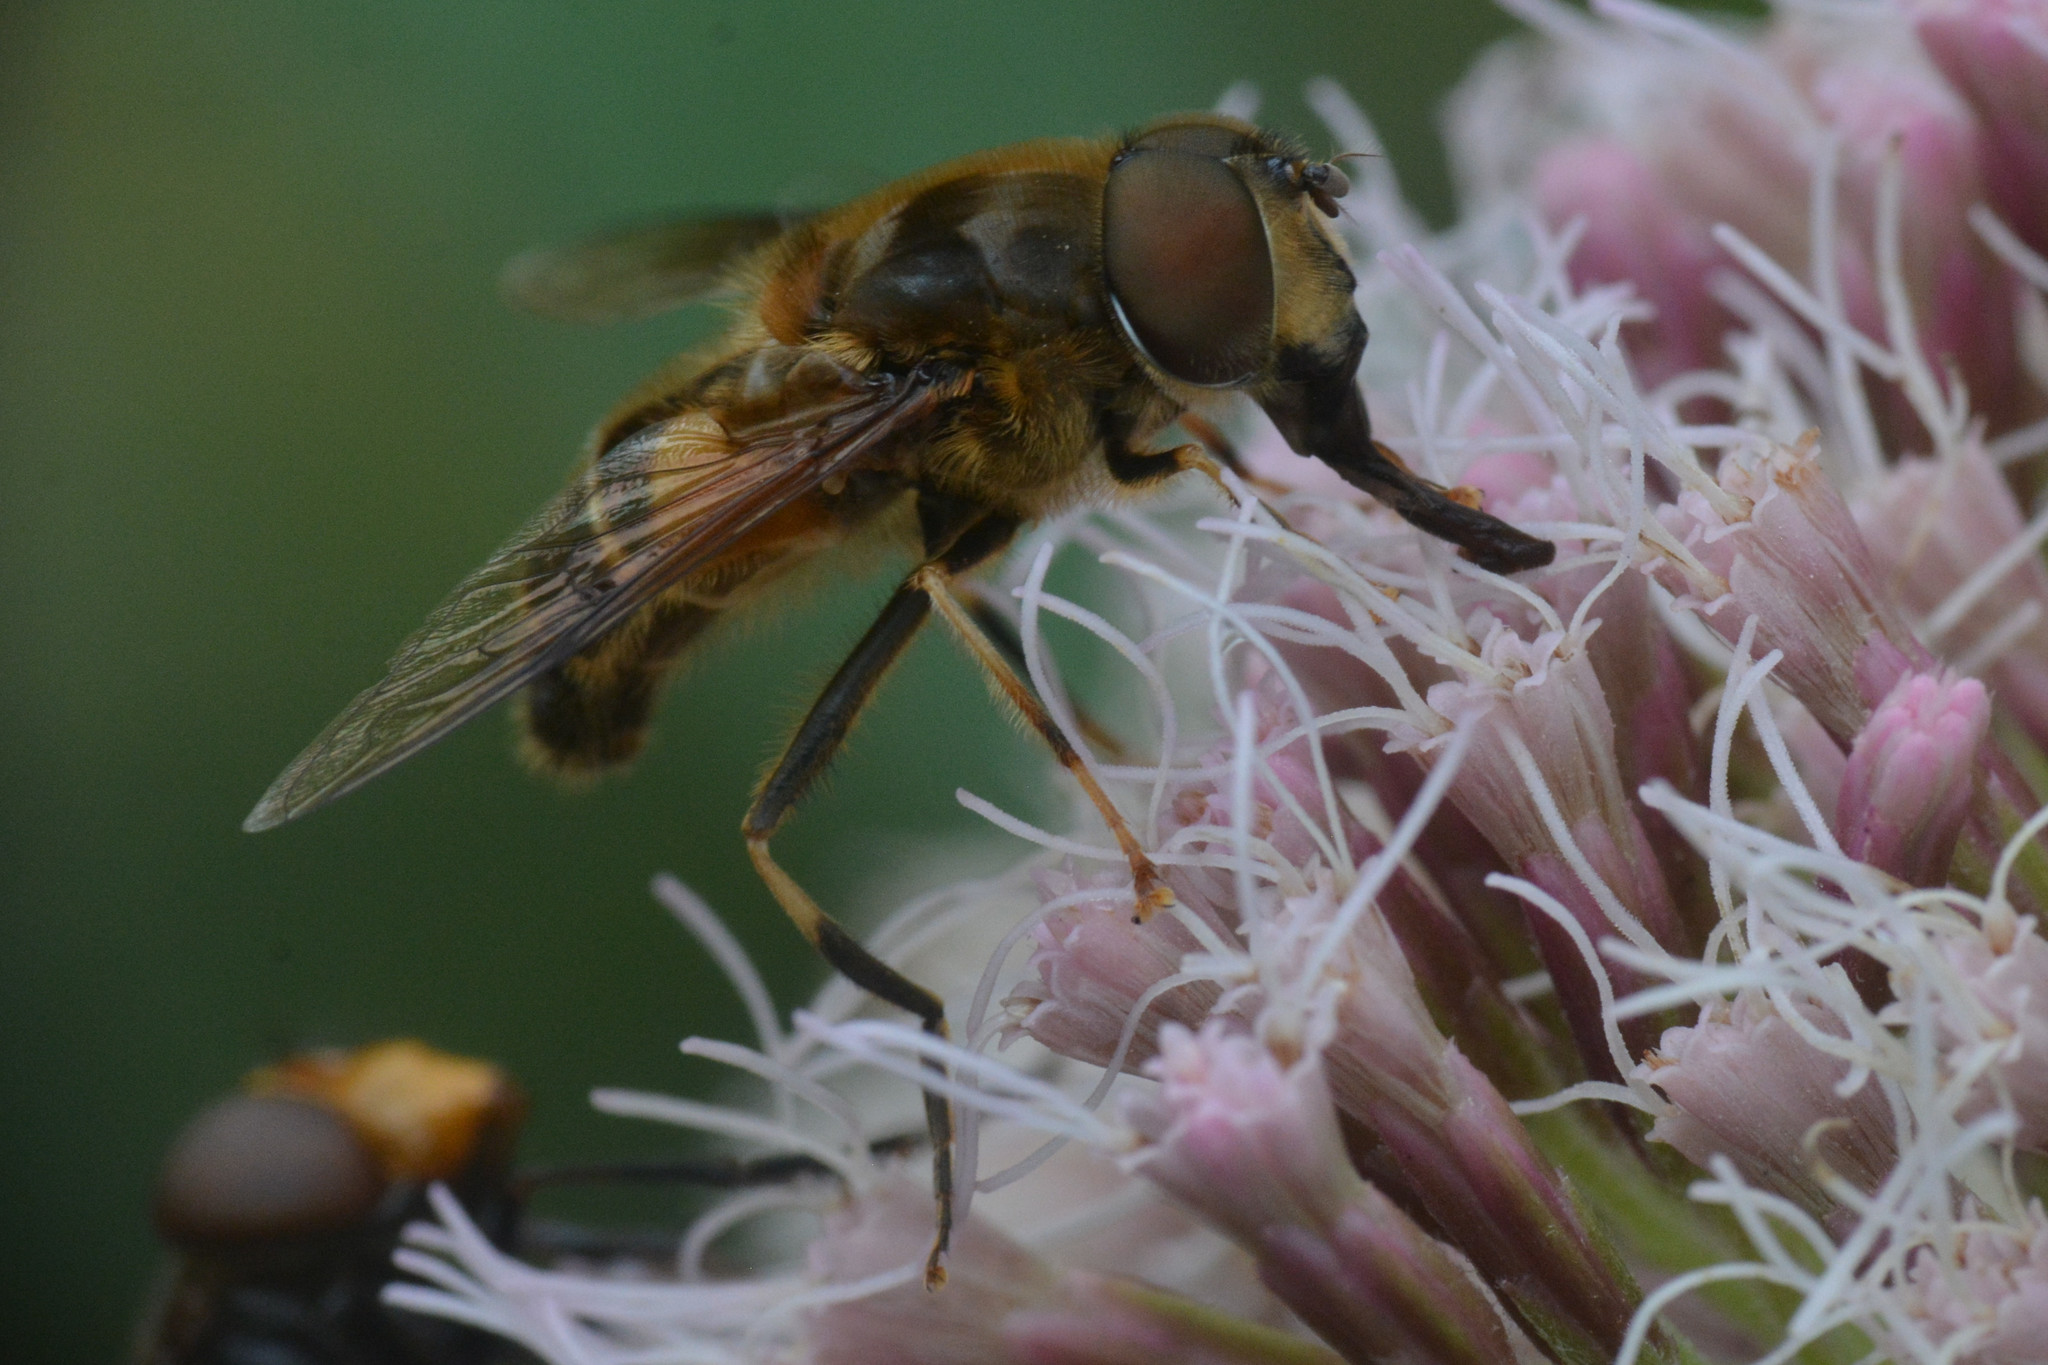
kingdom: Animalia
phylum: Arthropoda
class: Insecta
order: Diptera
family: Syrphidae
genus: Eristalis
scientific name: Eristalis pertinax
